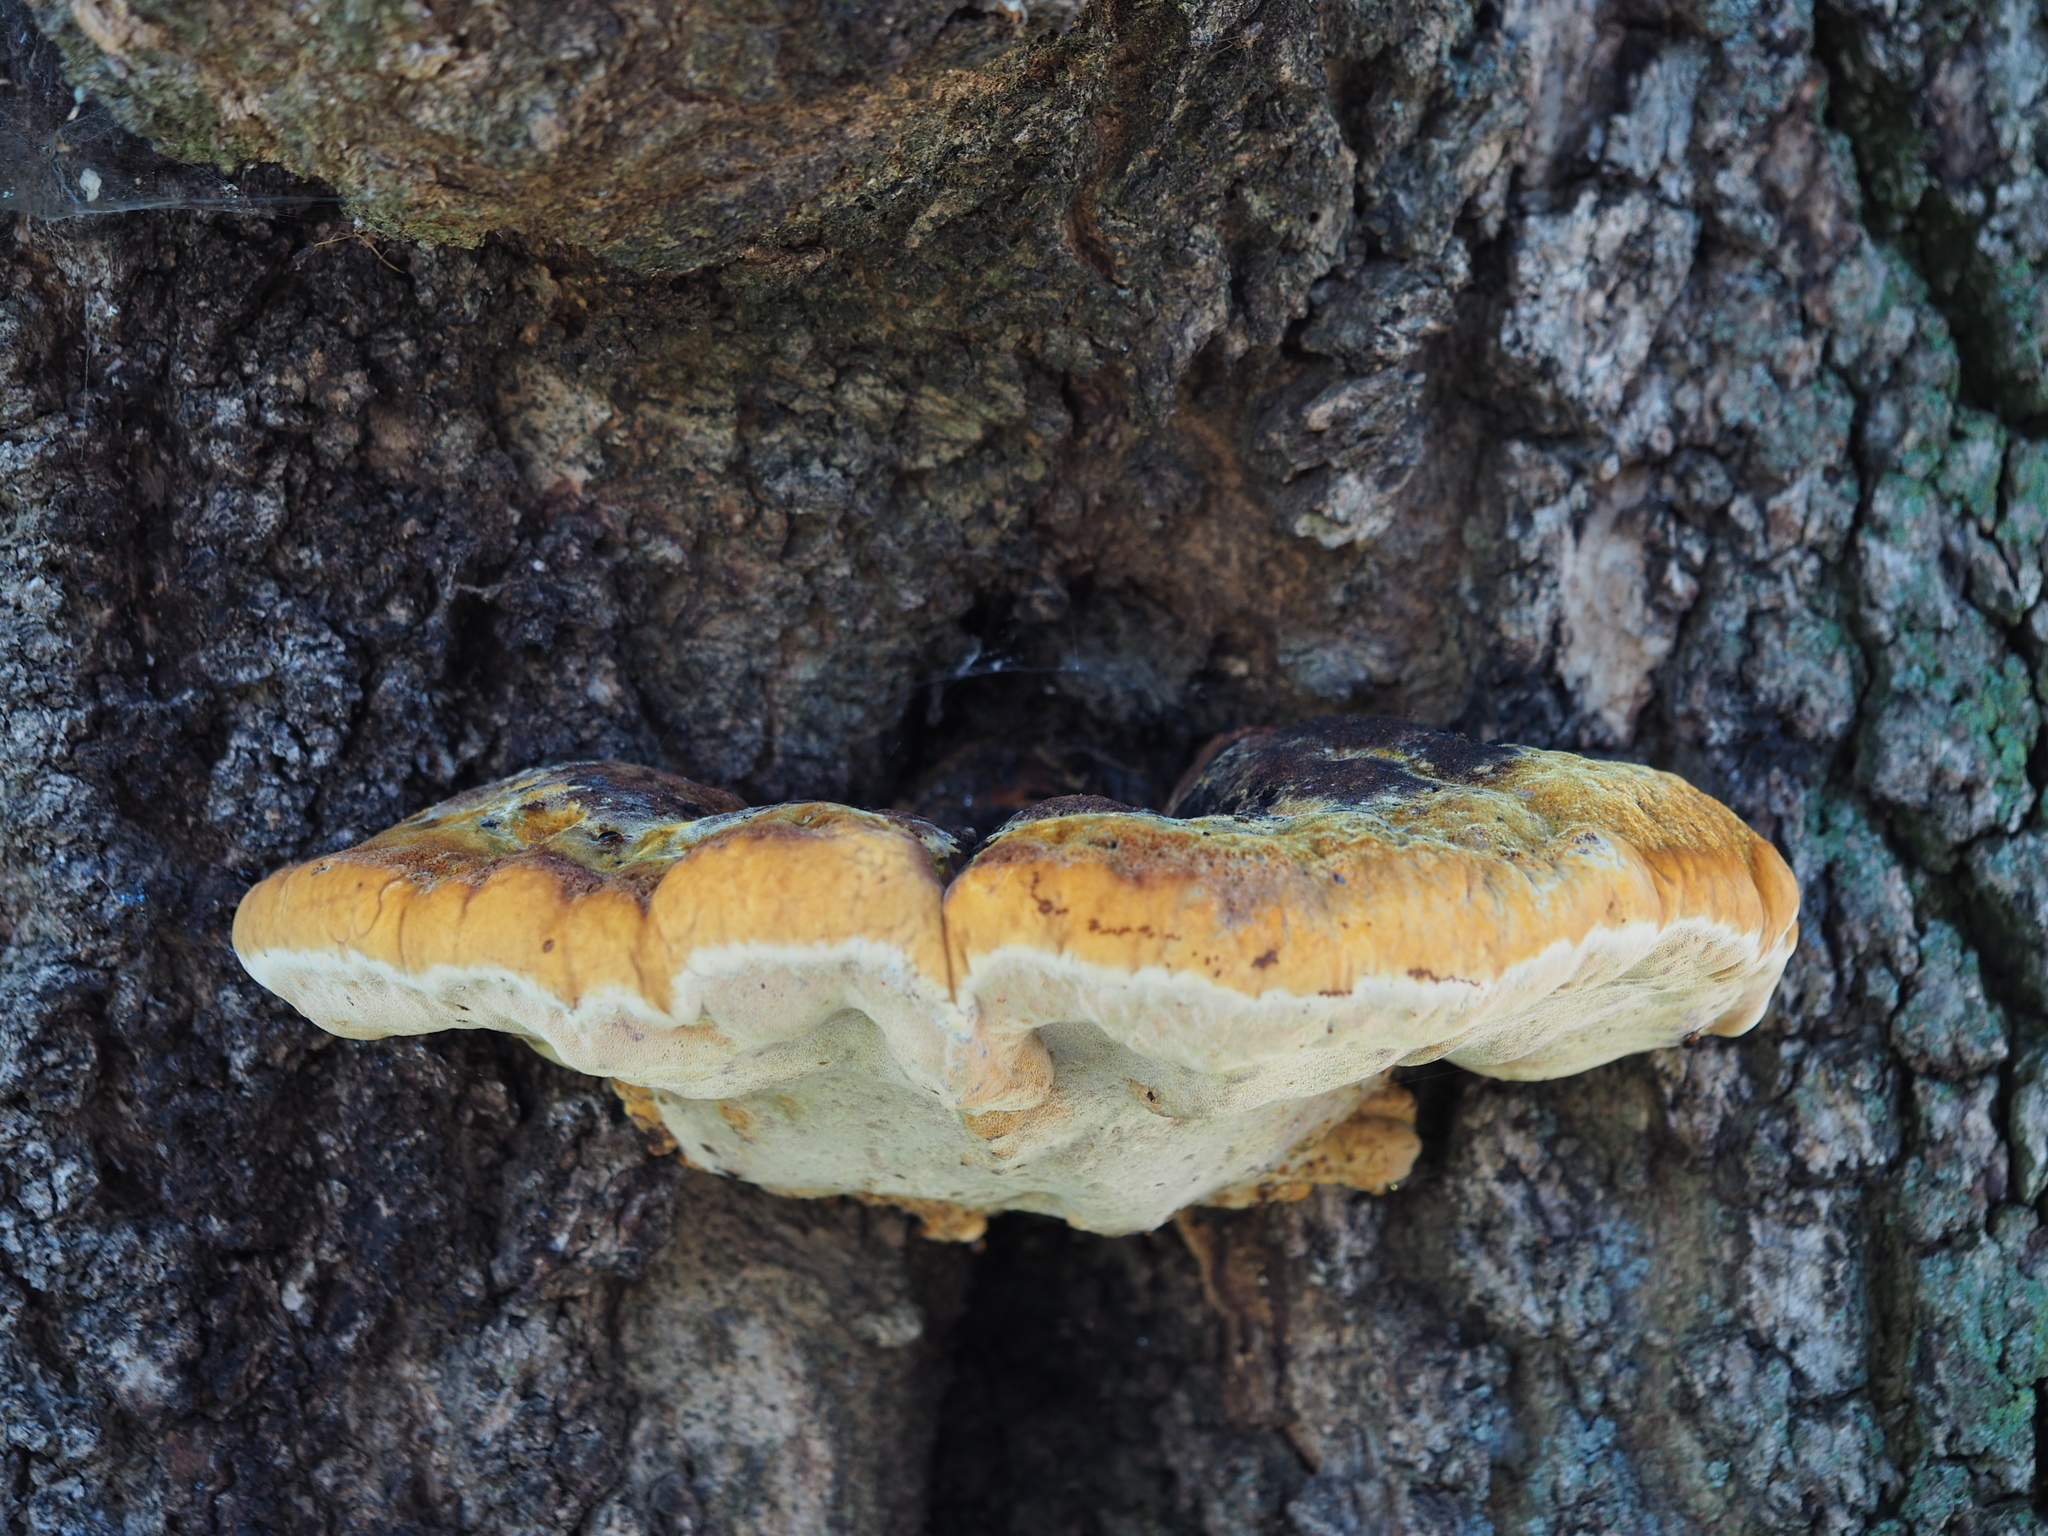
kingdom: Fungi
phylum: Basidiomycota
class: Agaricomycetes
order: Hymenochaetales
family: Hymenochaetaceae
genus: Inonotus
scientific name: Inonotus hispidus
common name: Shaggy bracket
